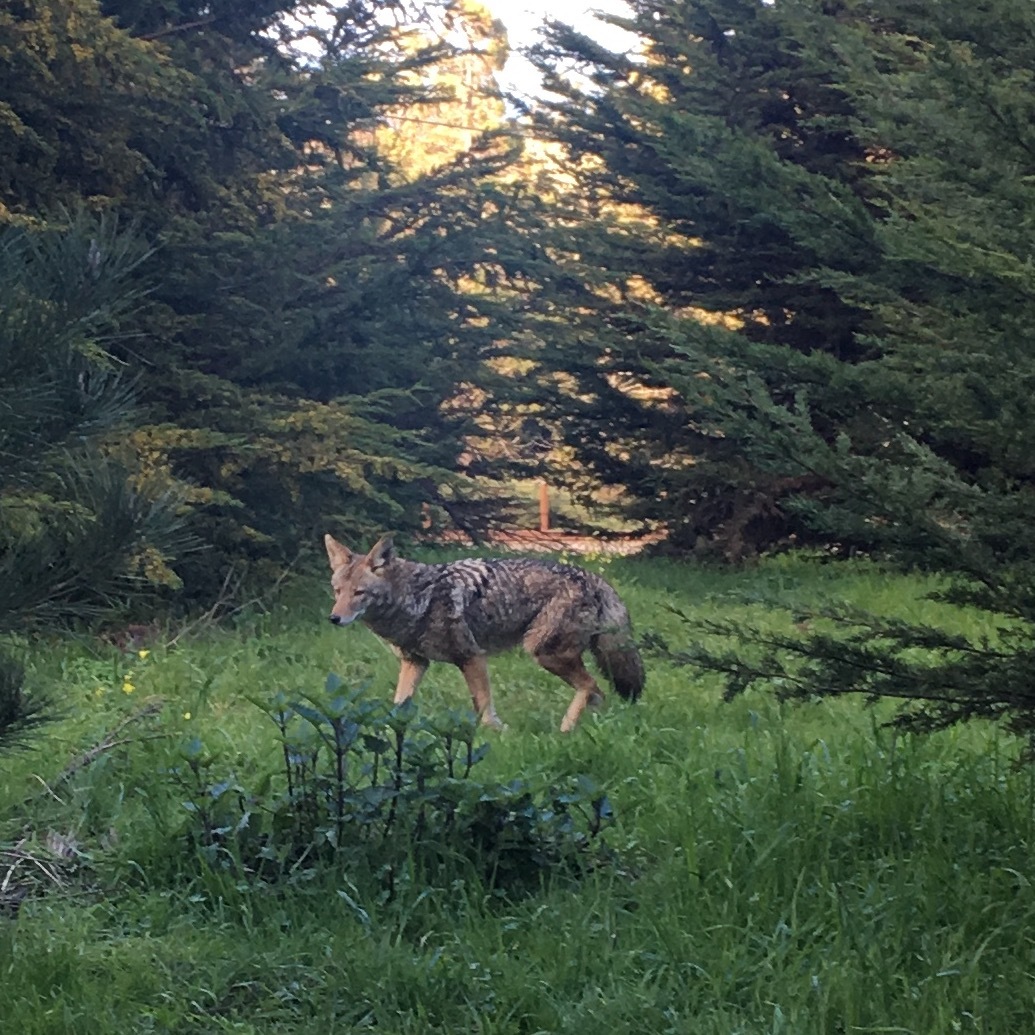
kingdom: Animalia
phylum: Chordata
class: Mammalia
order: Carnivora
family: Canidae
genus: Canis
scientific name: Canis latrans
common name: Coyote
